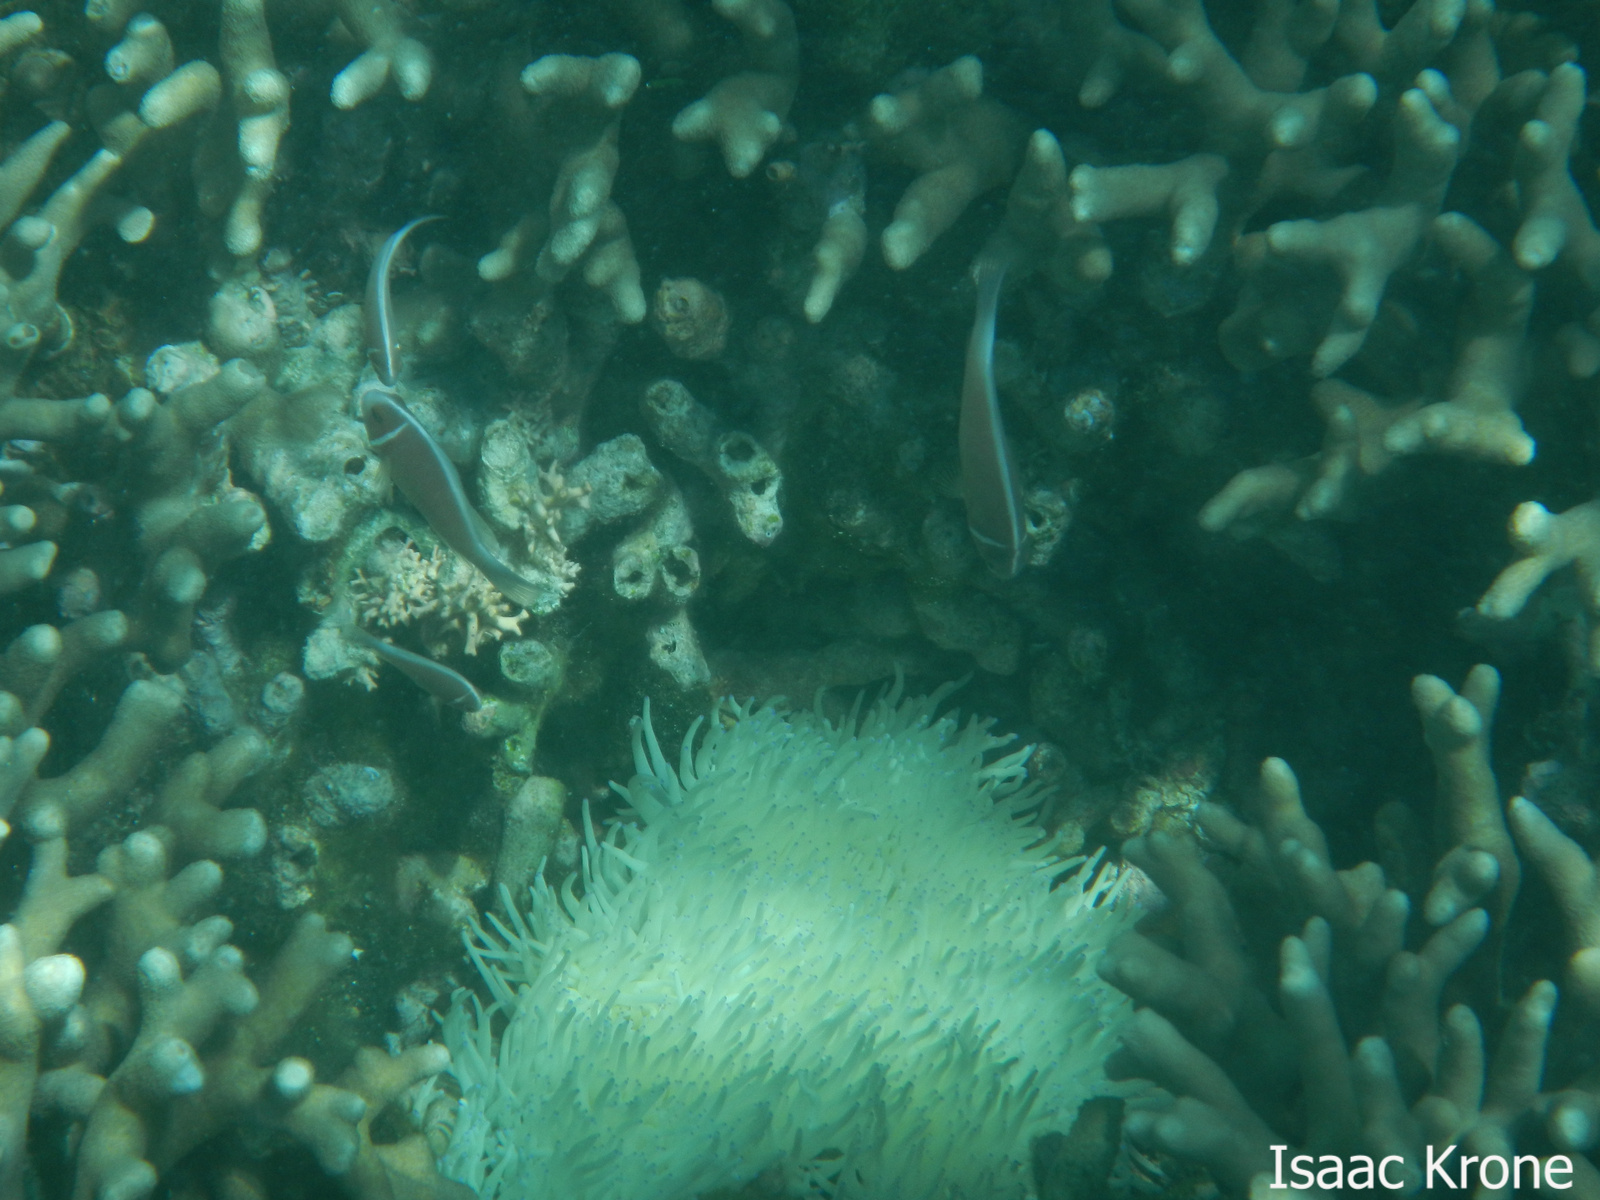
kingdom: Animalia
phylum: Chordata
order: Perciformes
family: Pomacentridae
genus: Amphiprion
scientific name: Amphiprion perideraion
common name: Pink anemonefish
